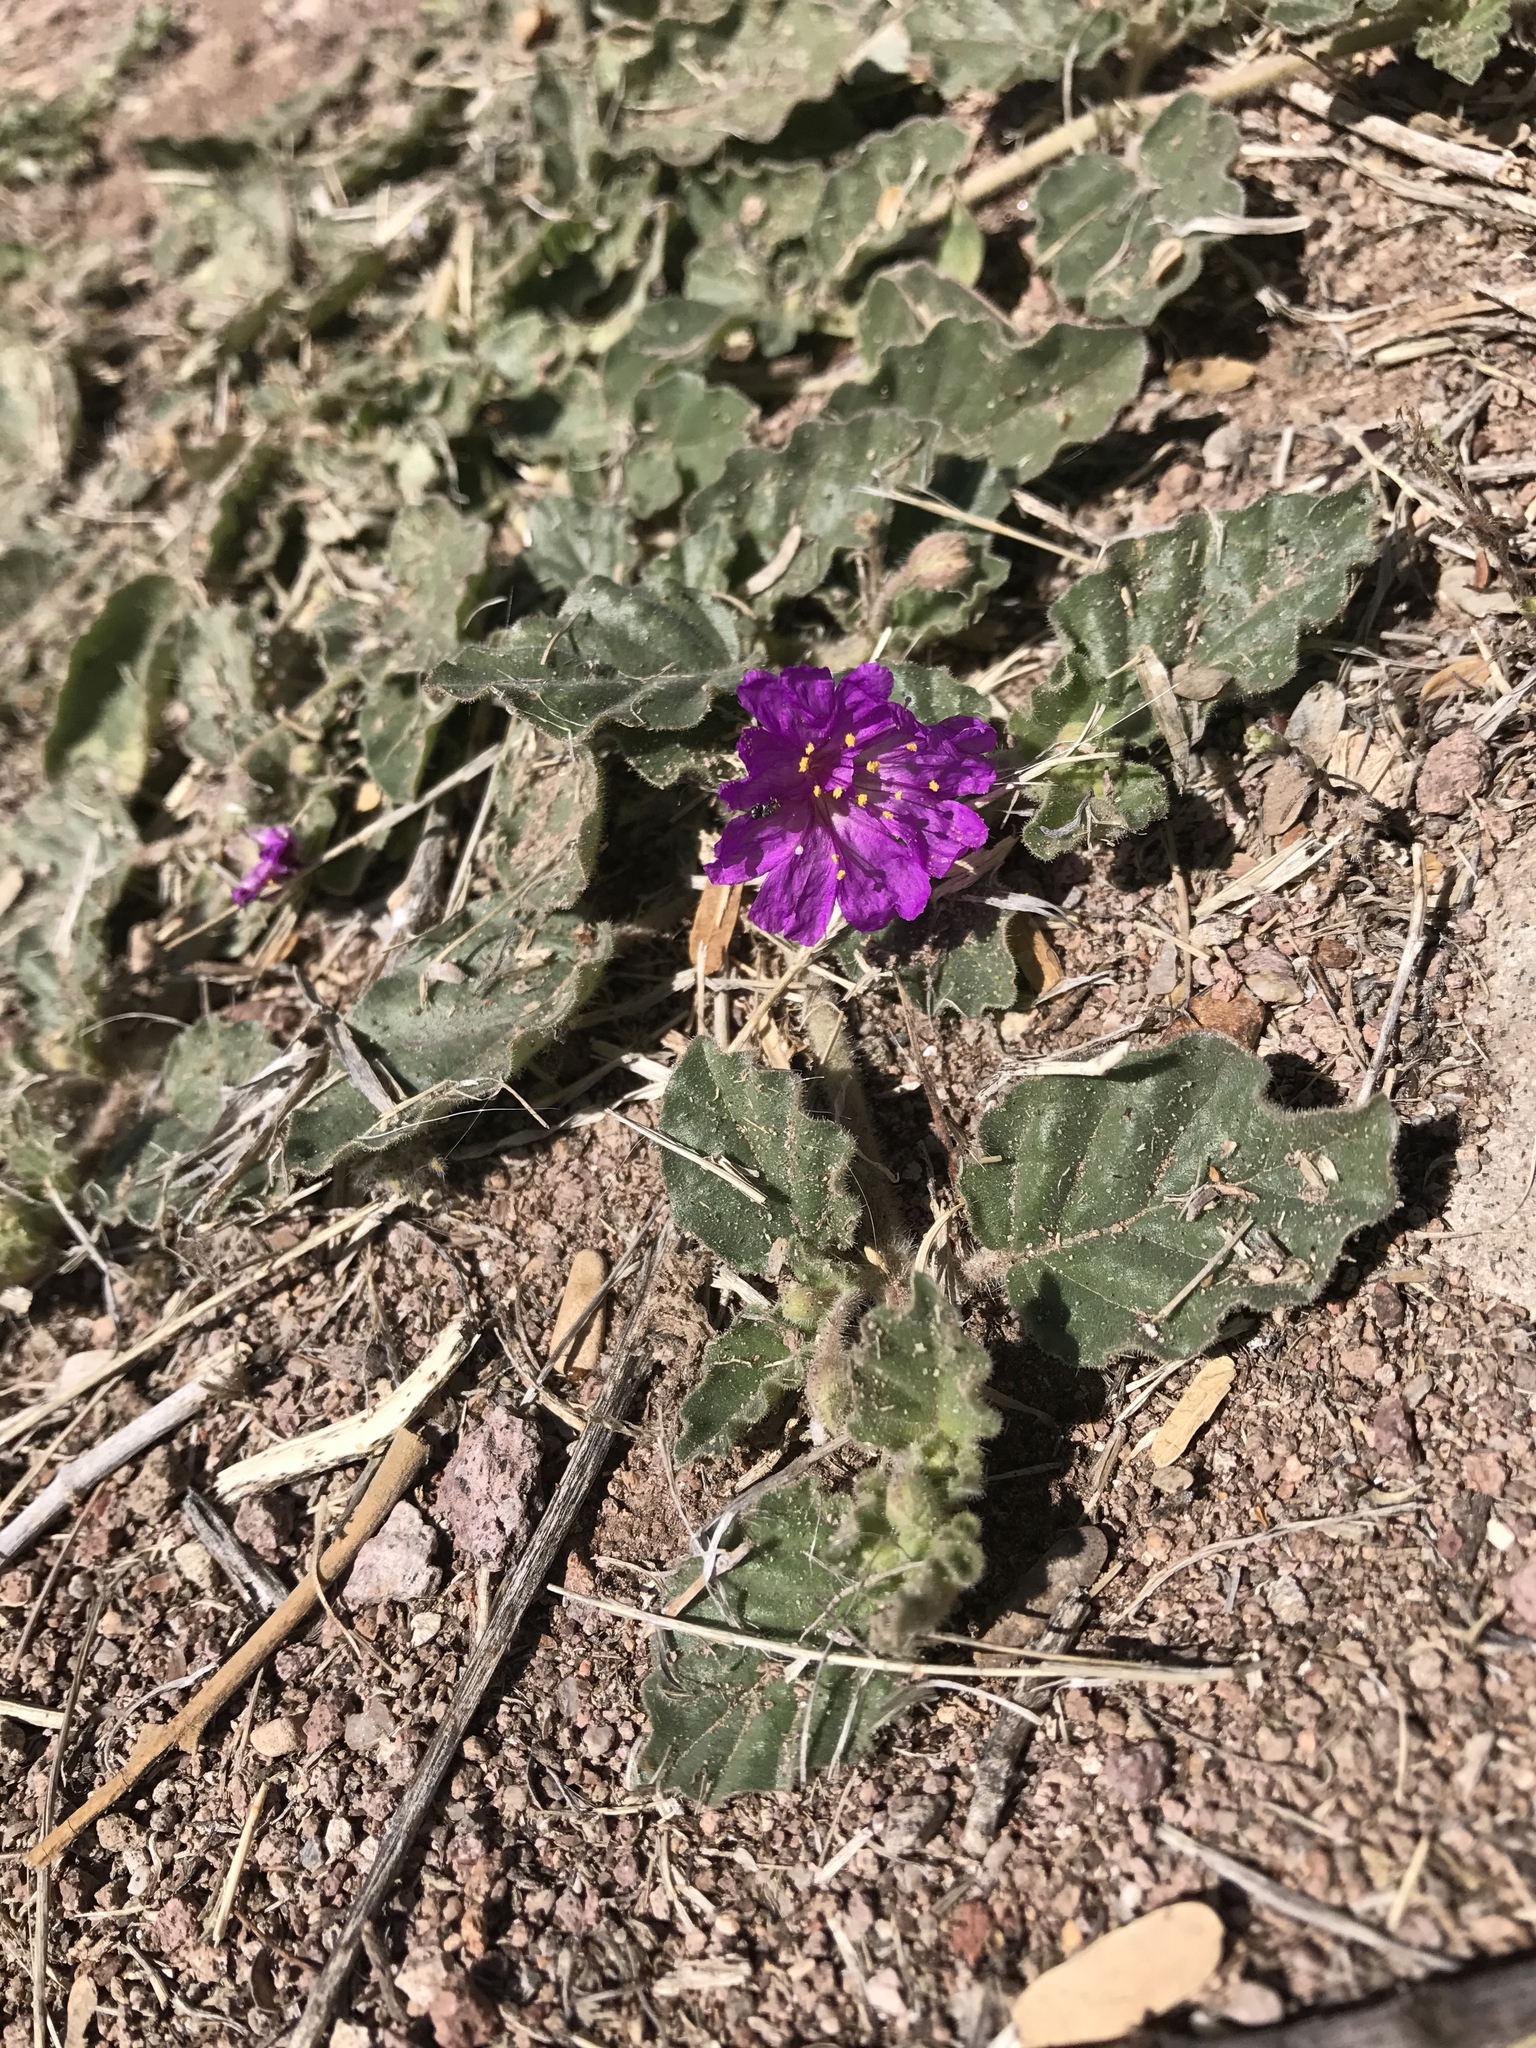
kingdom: Plantae
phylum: Tracheophyta
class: Magnoliopsida
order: Caryophyllales
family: Nyctaginaceae
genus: Allionia
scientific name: Allionia incarnata
